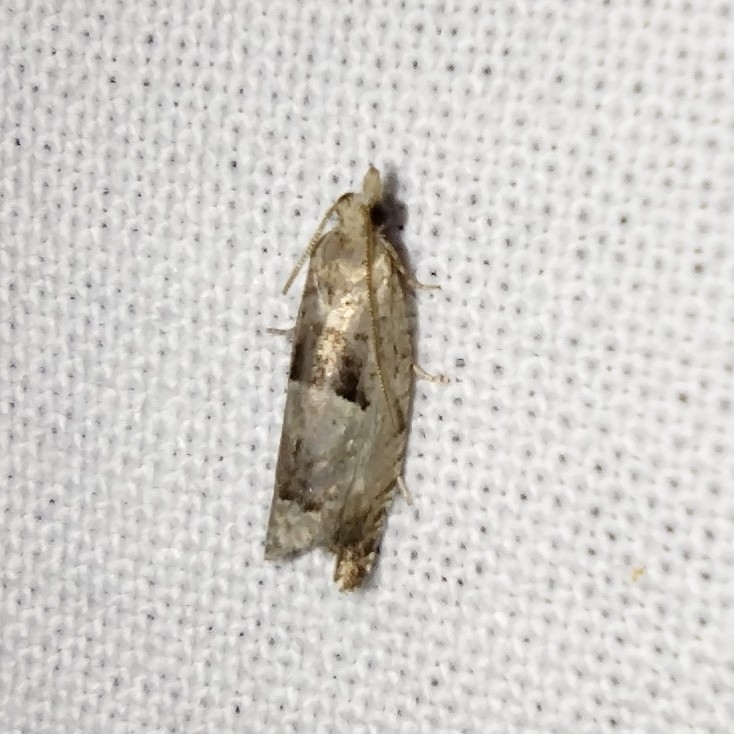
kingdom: Animalia
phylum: Arthropoda
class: Insecta
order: Lepidoptera
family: Tortricidae
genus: Epinotia
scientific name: Epinotia ramella
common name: Small birch bell
